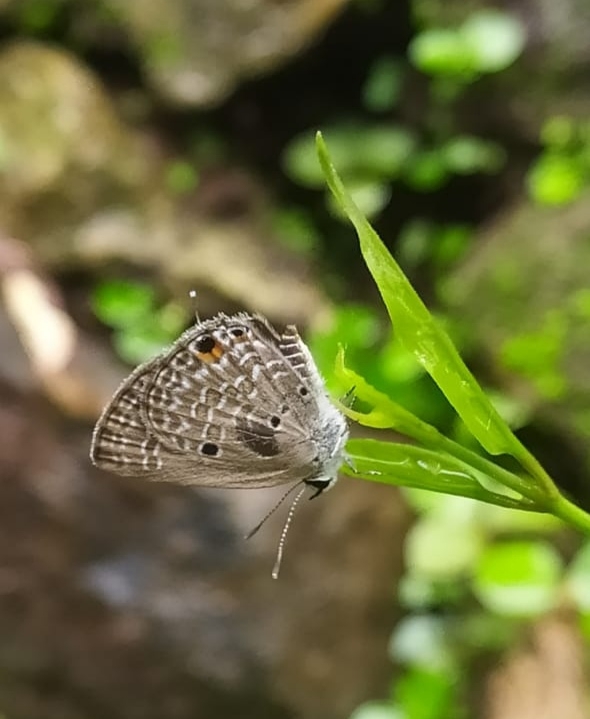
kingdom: Animalia
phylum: Arthropoda
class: Insecta
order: Lepidoptera
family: Lycaenidae
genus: Luthrodes
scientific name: Luthrodes pandava
